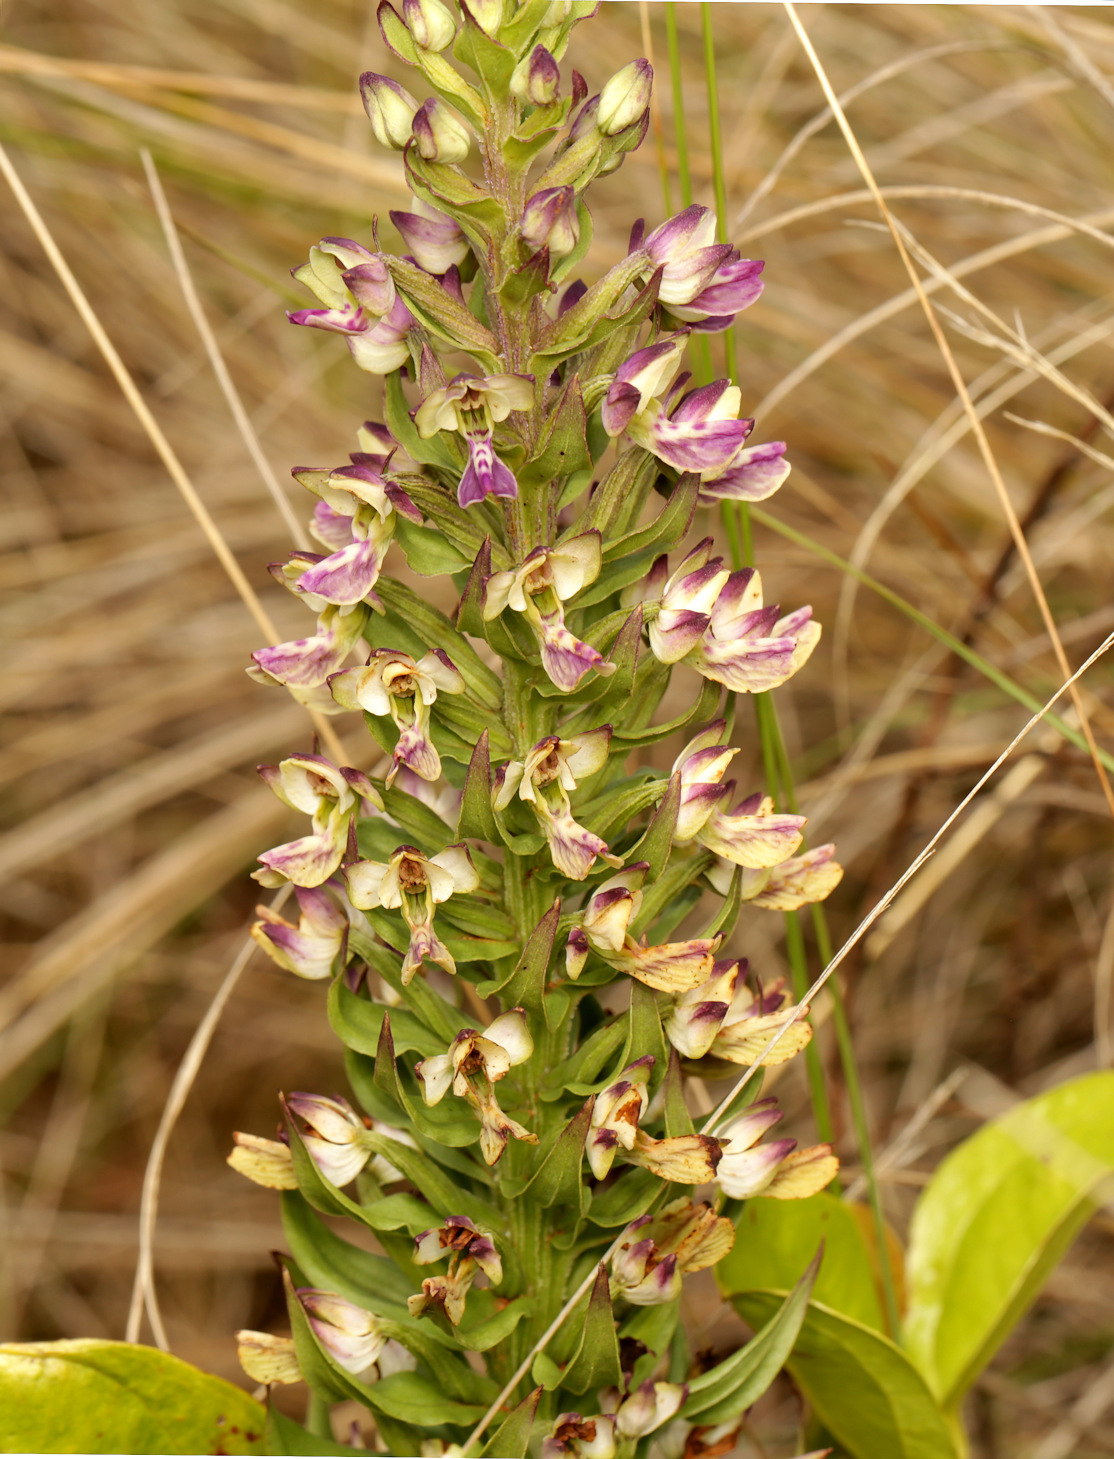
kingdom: Plantae
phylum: Tracheophyta
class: Liliopsida
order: Asparagales
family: Orchidaceae
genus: Brachycorythis
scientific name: Brachycorythis ovata
